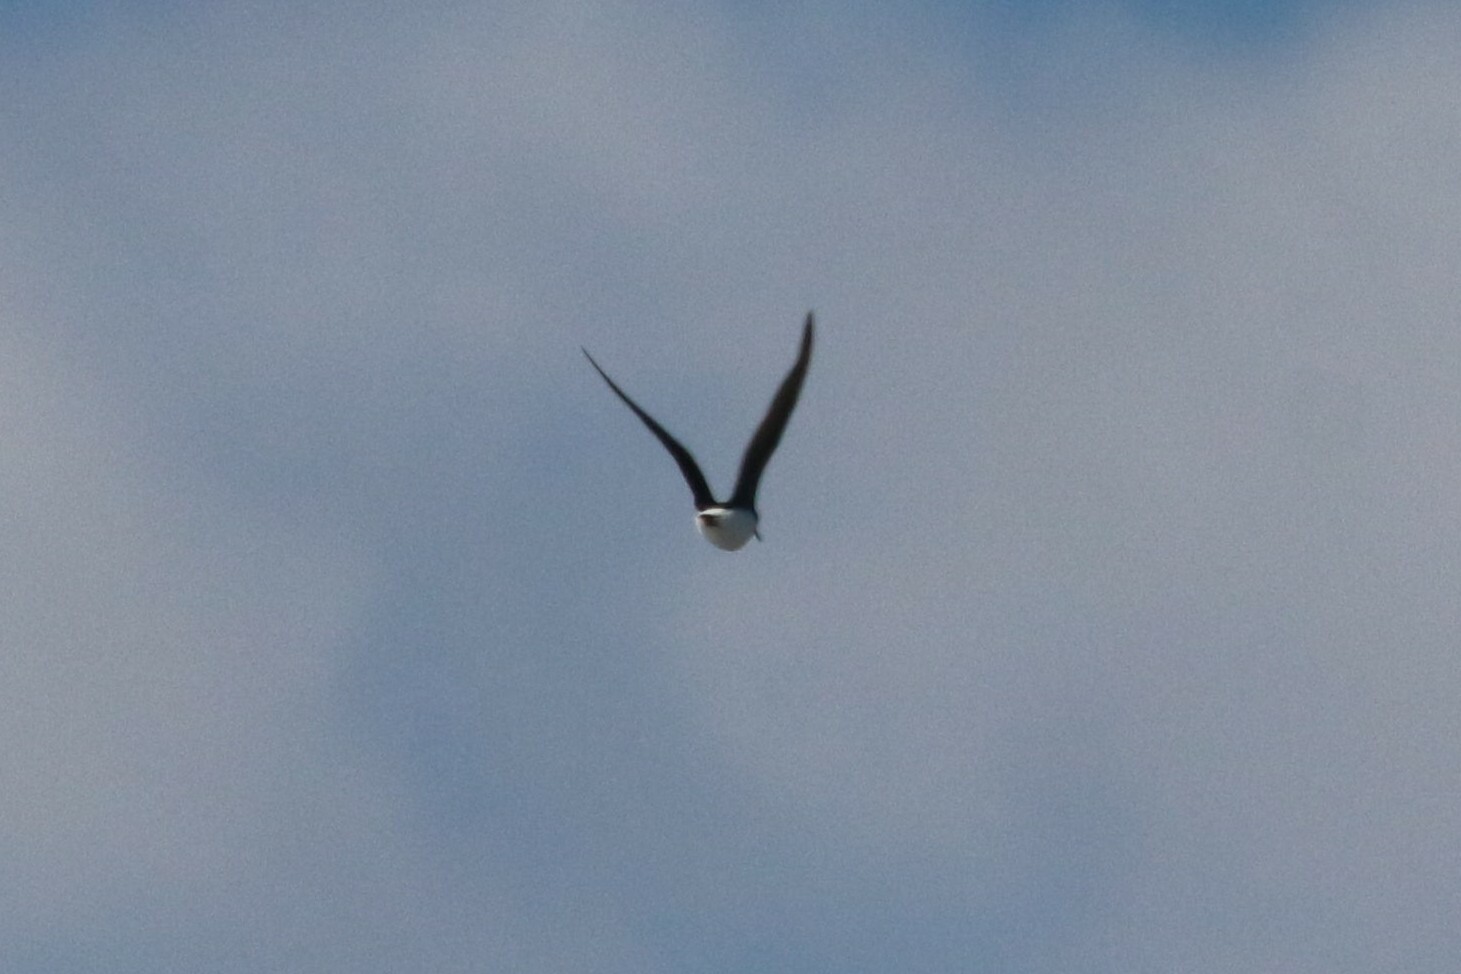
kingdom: Animalia
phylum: Chordata
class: Aves
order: Charadriiformes
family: Scolopacidae
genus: Tringa
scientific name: Tringa ochropus
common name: Green sandpiper
